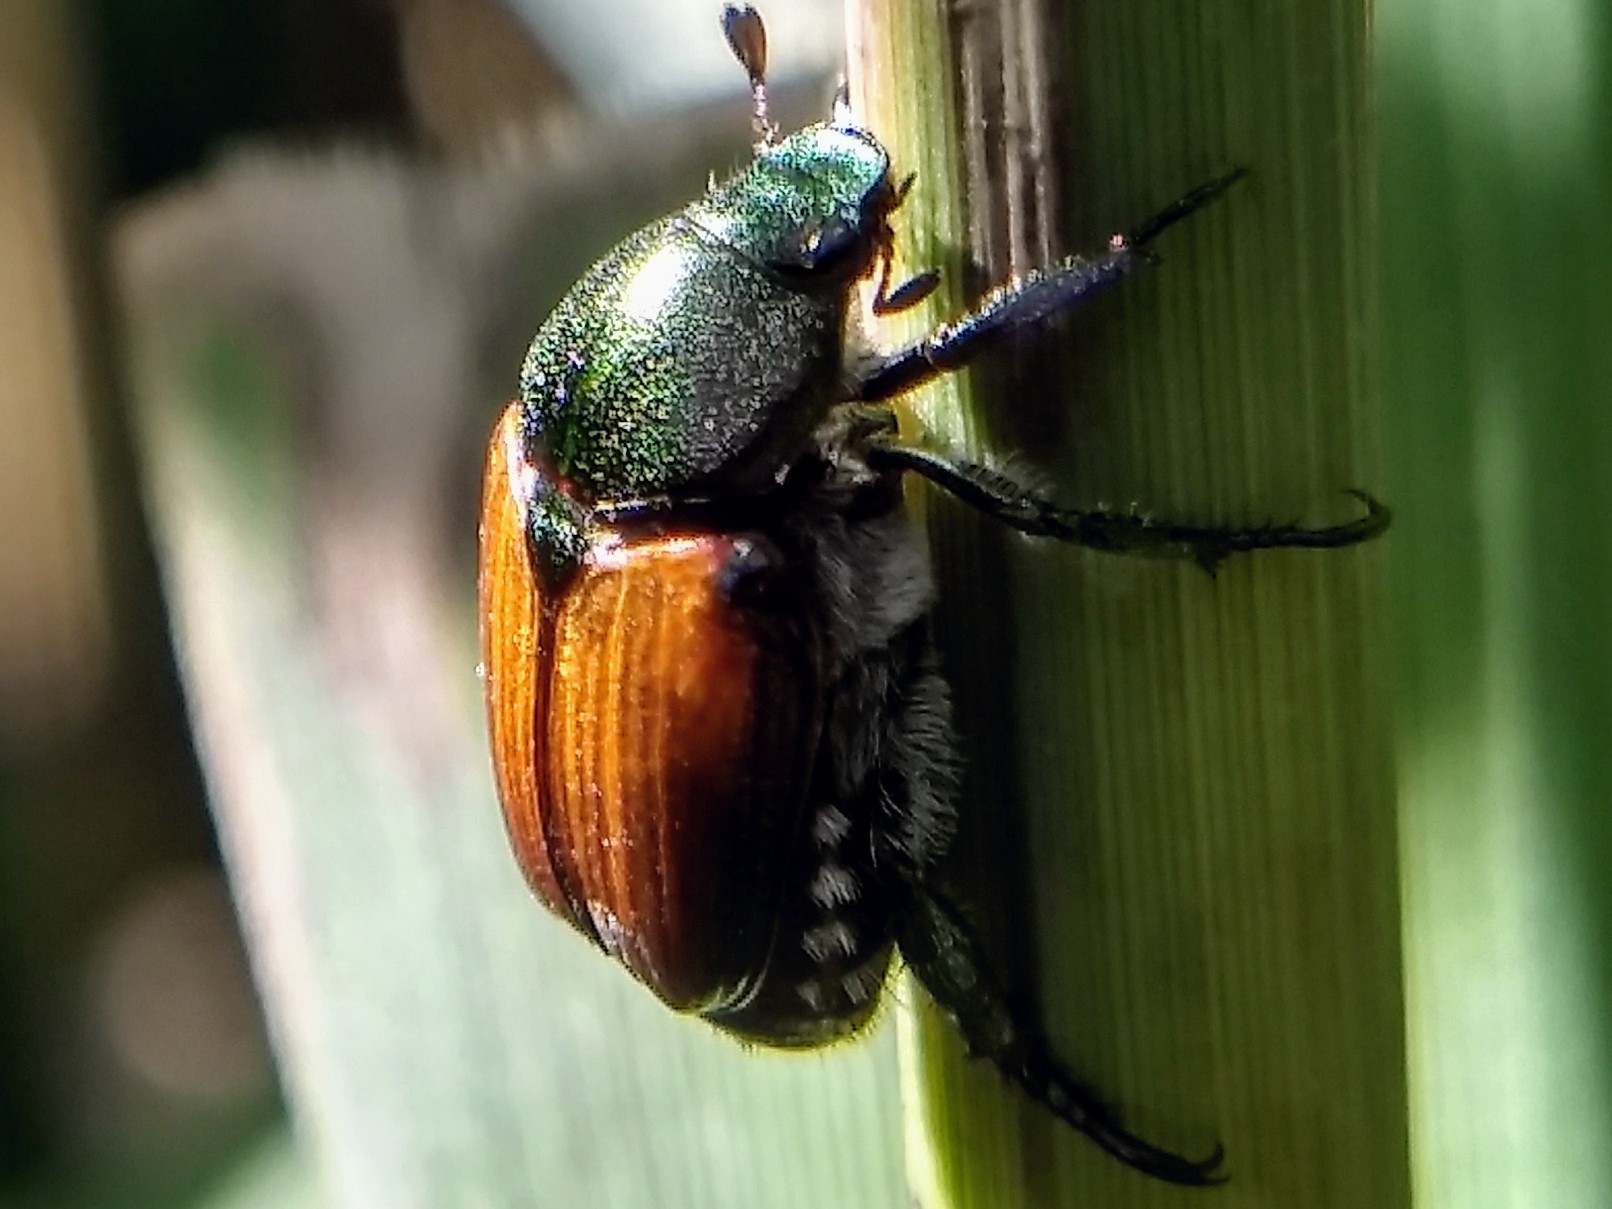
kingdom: Animalia
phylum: Arthropoda
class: Insecta
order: Coleoptera
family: Scarabaeidae
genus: Popillia
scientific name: Popillia japonica
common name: Japanese beetle
